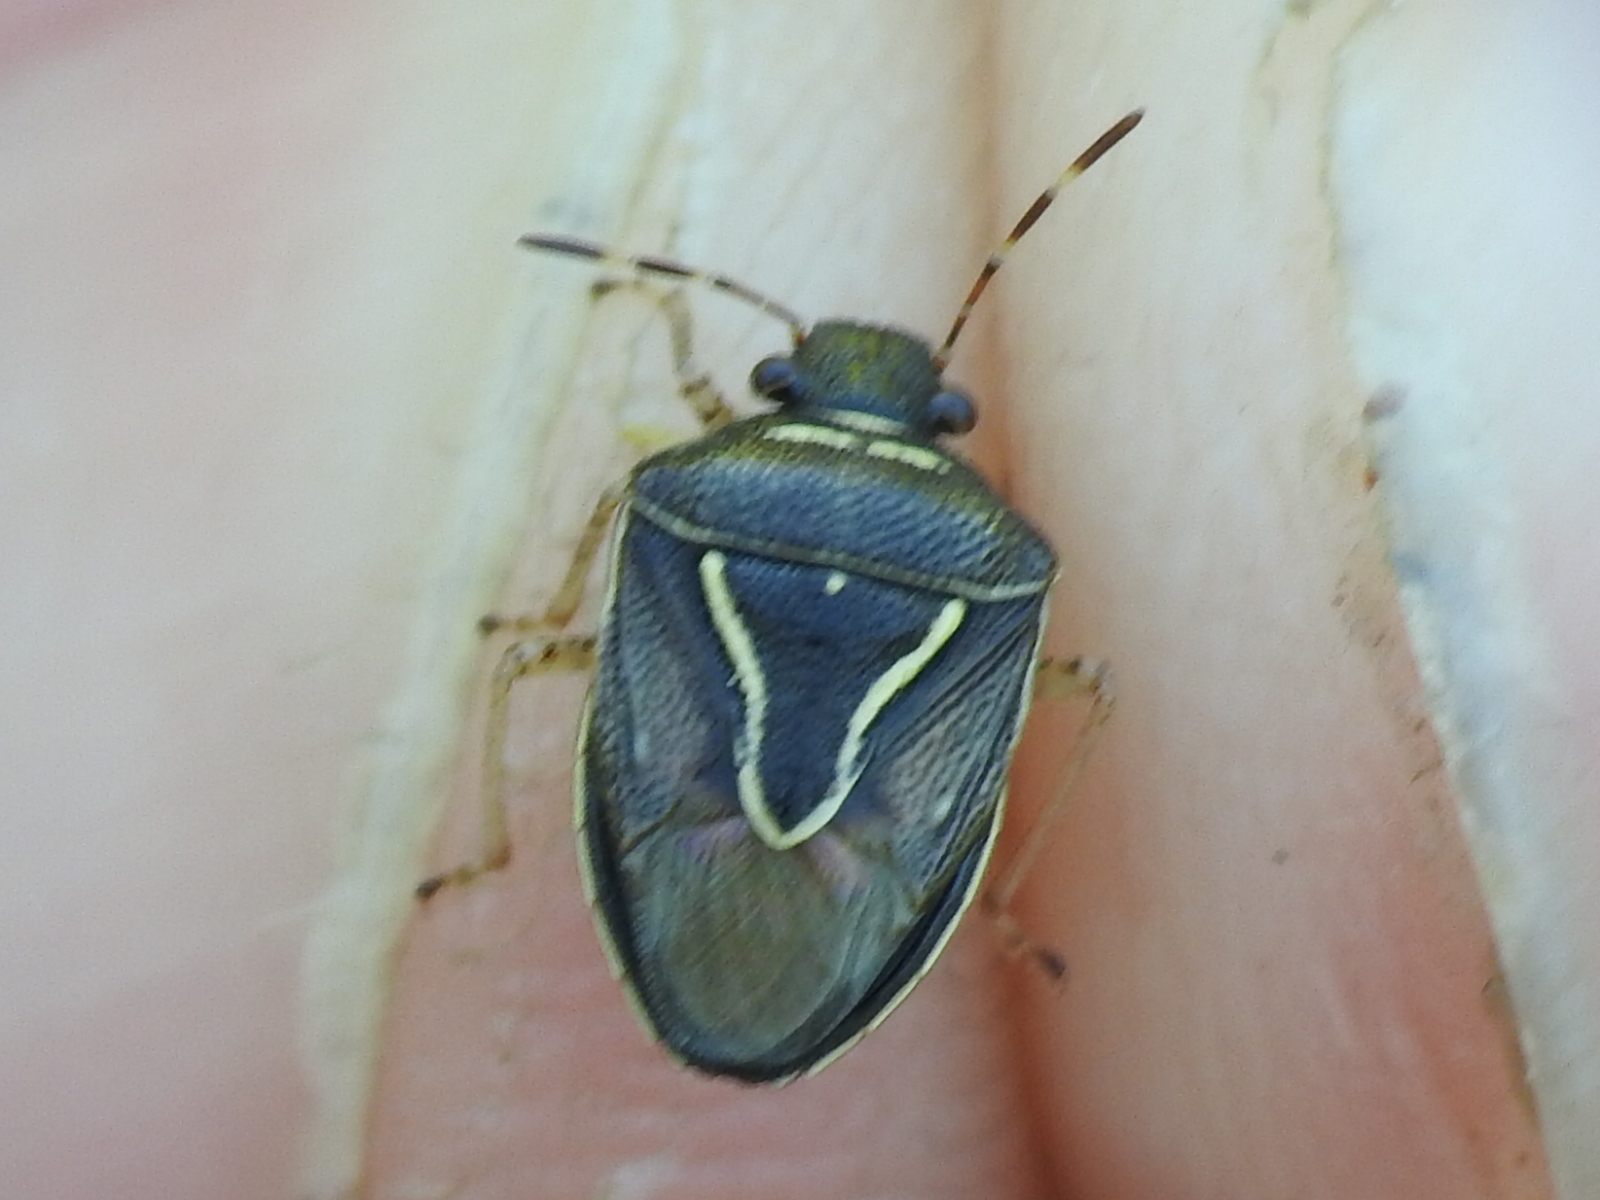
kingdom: Animalia
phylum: Arthropoda
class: Insecta
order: Hemiptera
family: Pentatomidae
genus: Mormidea
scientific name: Mormidea lugens
